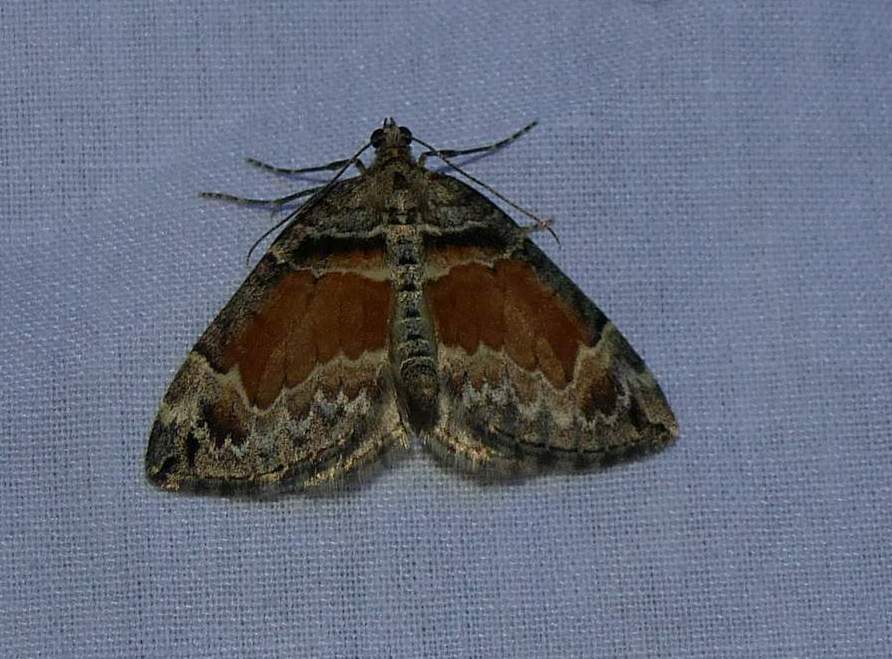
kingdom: Animalia
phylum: Arthropoda
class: Insecta
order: Lepidoptera
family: Geometridae
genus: Dysstroma
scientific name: Dysstroma hersiliata
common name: Orange-barred carpet
